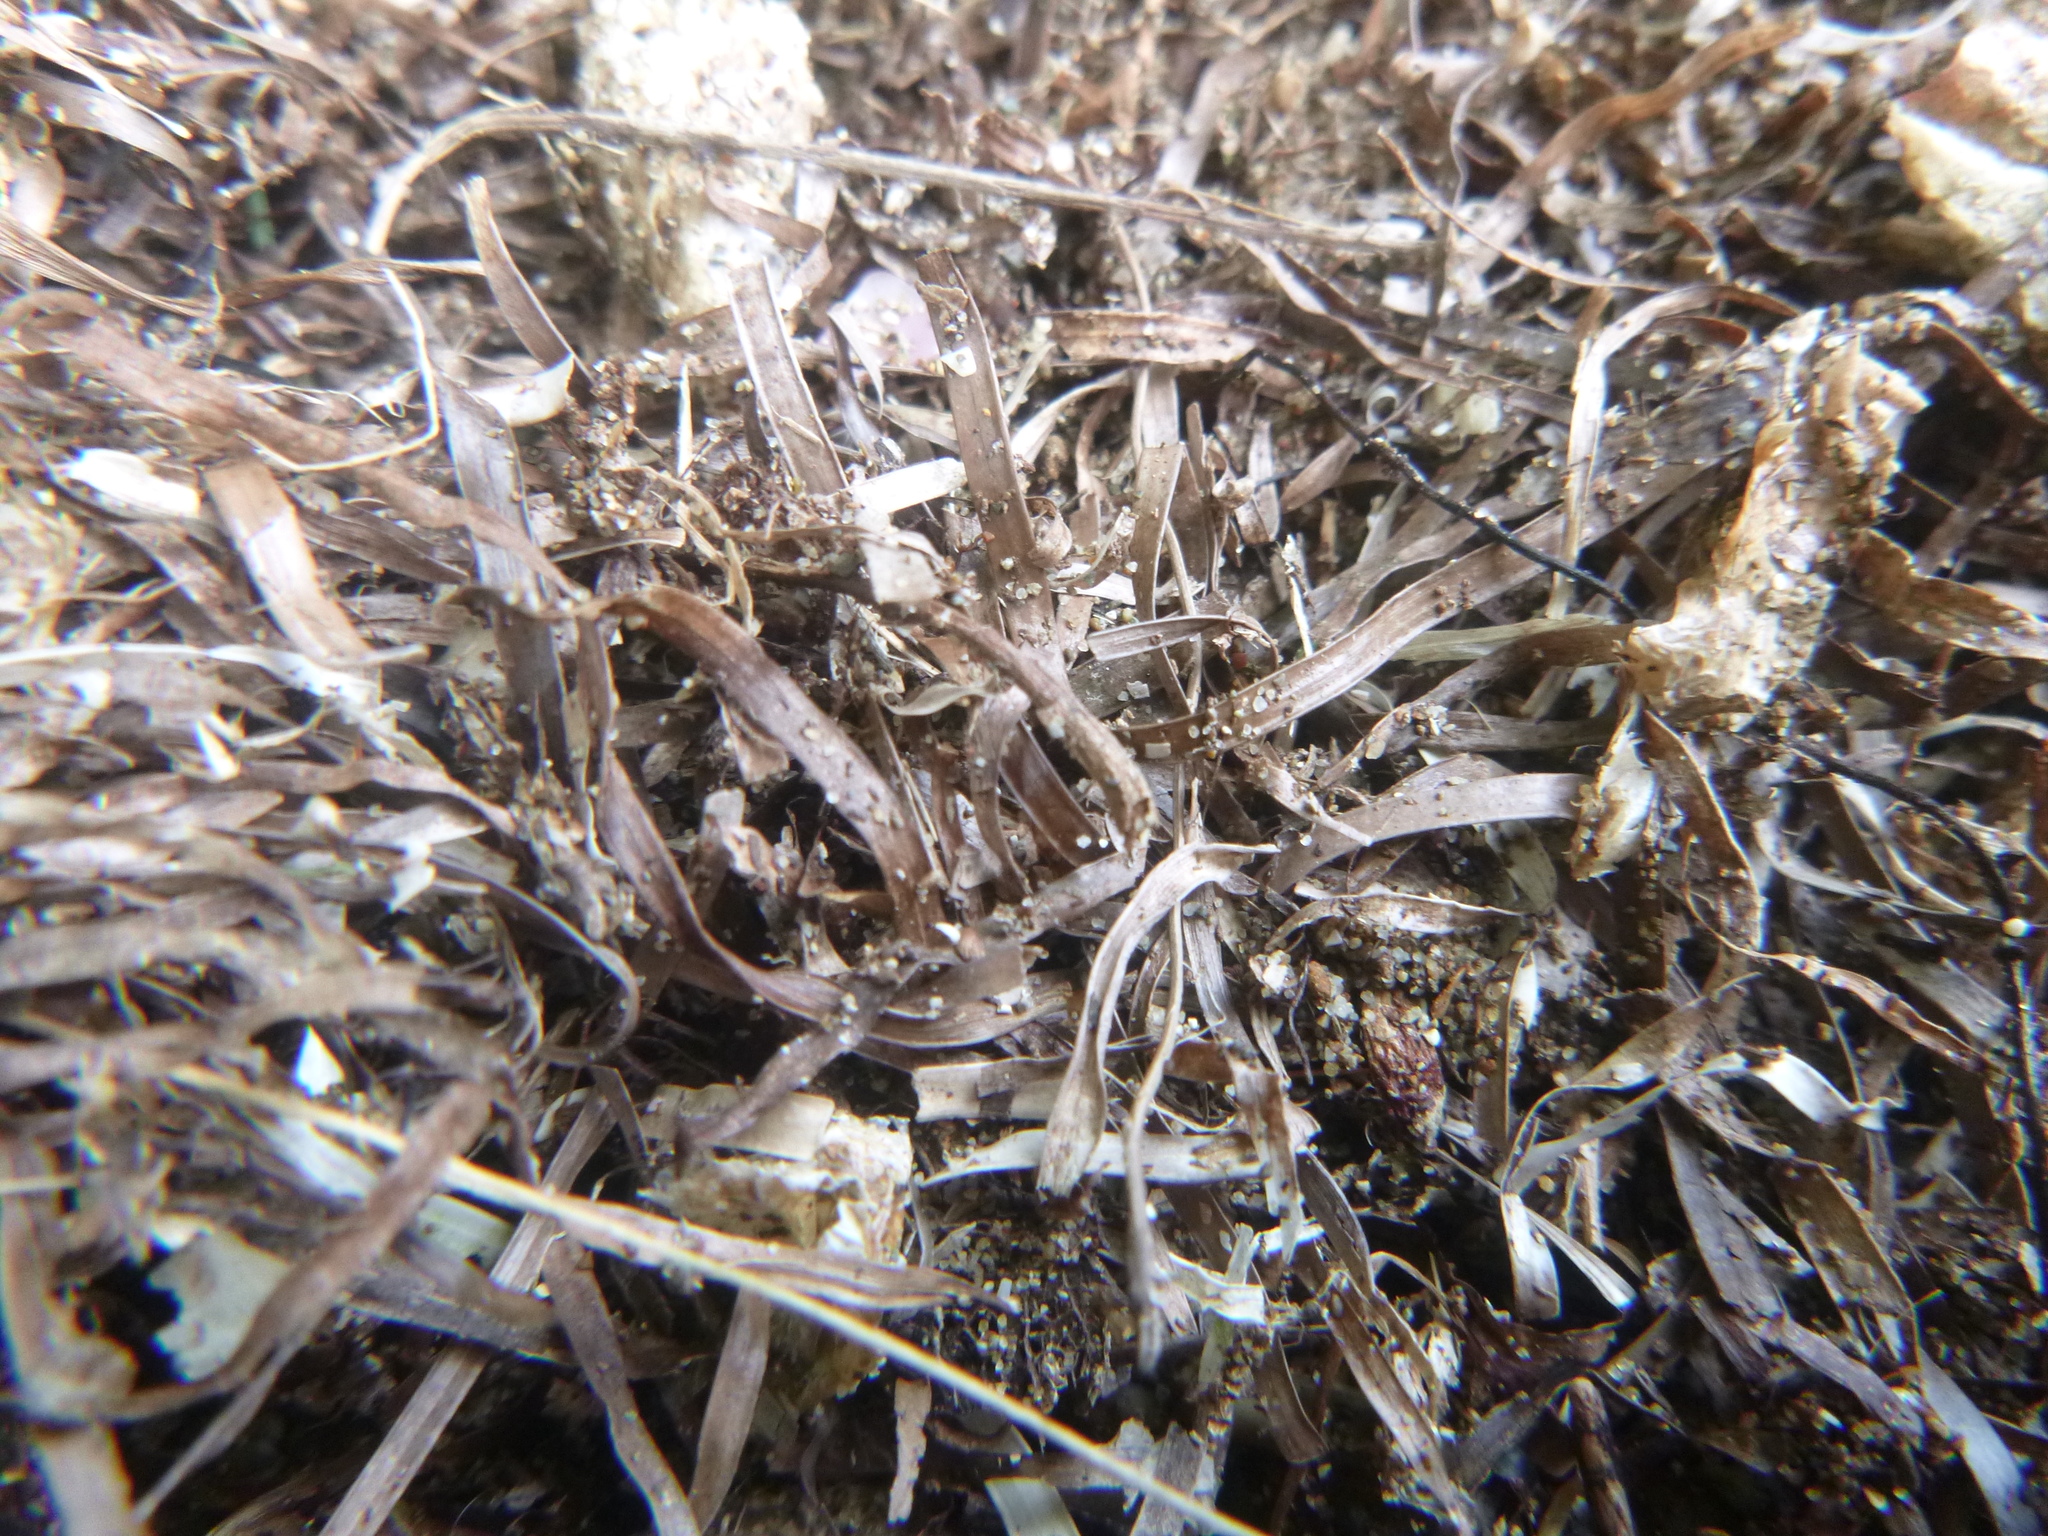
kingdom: Plantae
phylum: Tracheophyta
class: Liliopsida
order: Alismatales
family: Zosteraceae
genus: Zostera
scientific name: Zostera novazelandica
